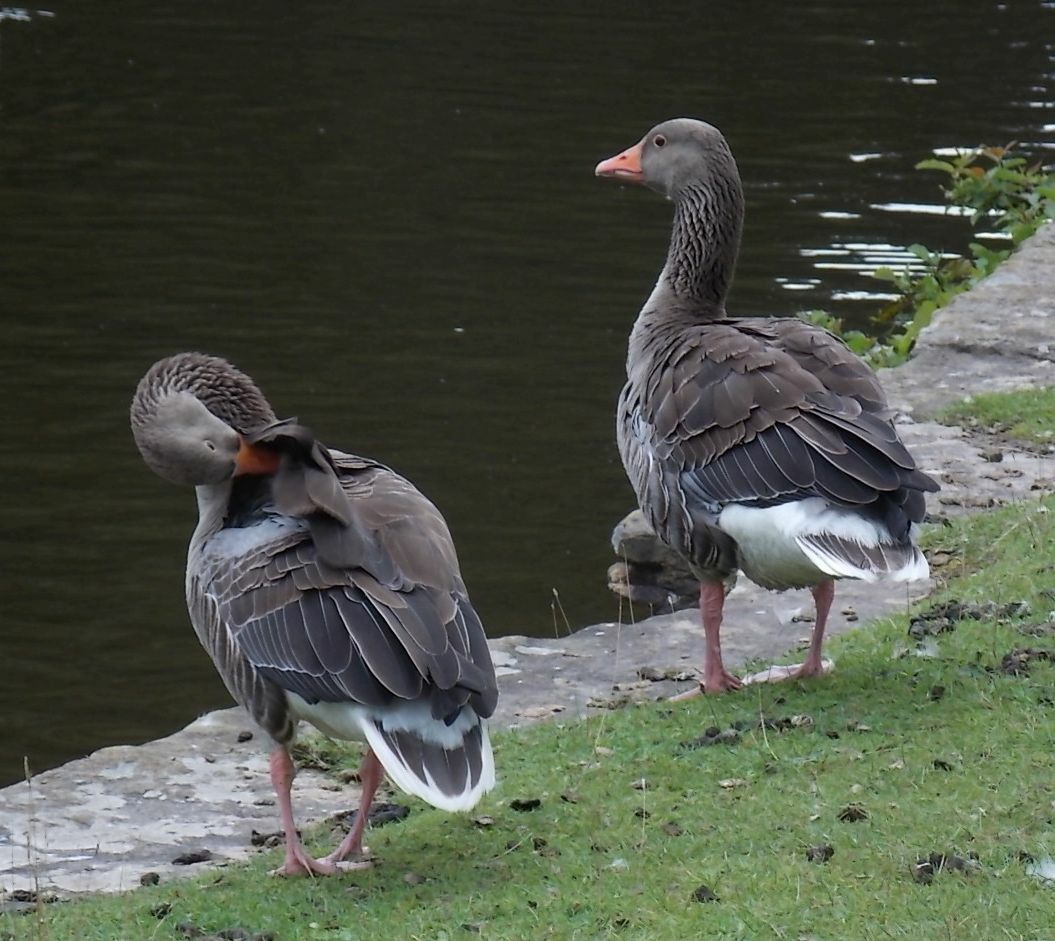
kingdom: Animalia
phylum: Chordata
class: Aves
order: Anseriformes
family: Anatidae
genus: Anser
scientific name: Anser anser
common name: Greylag goose
